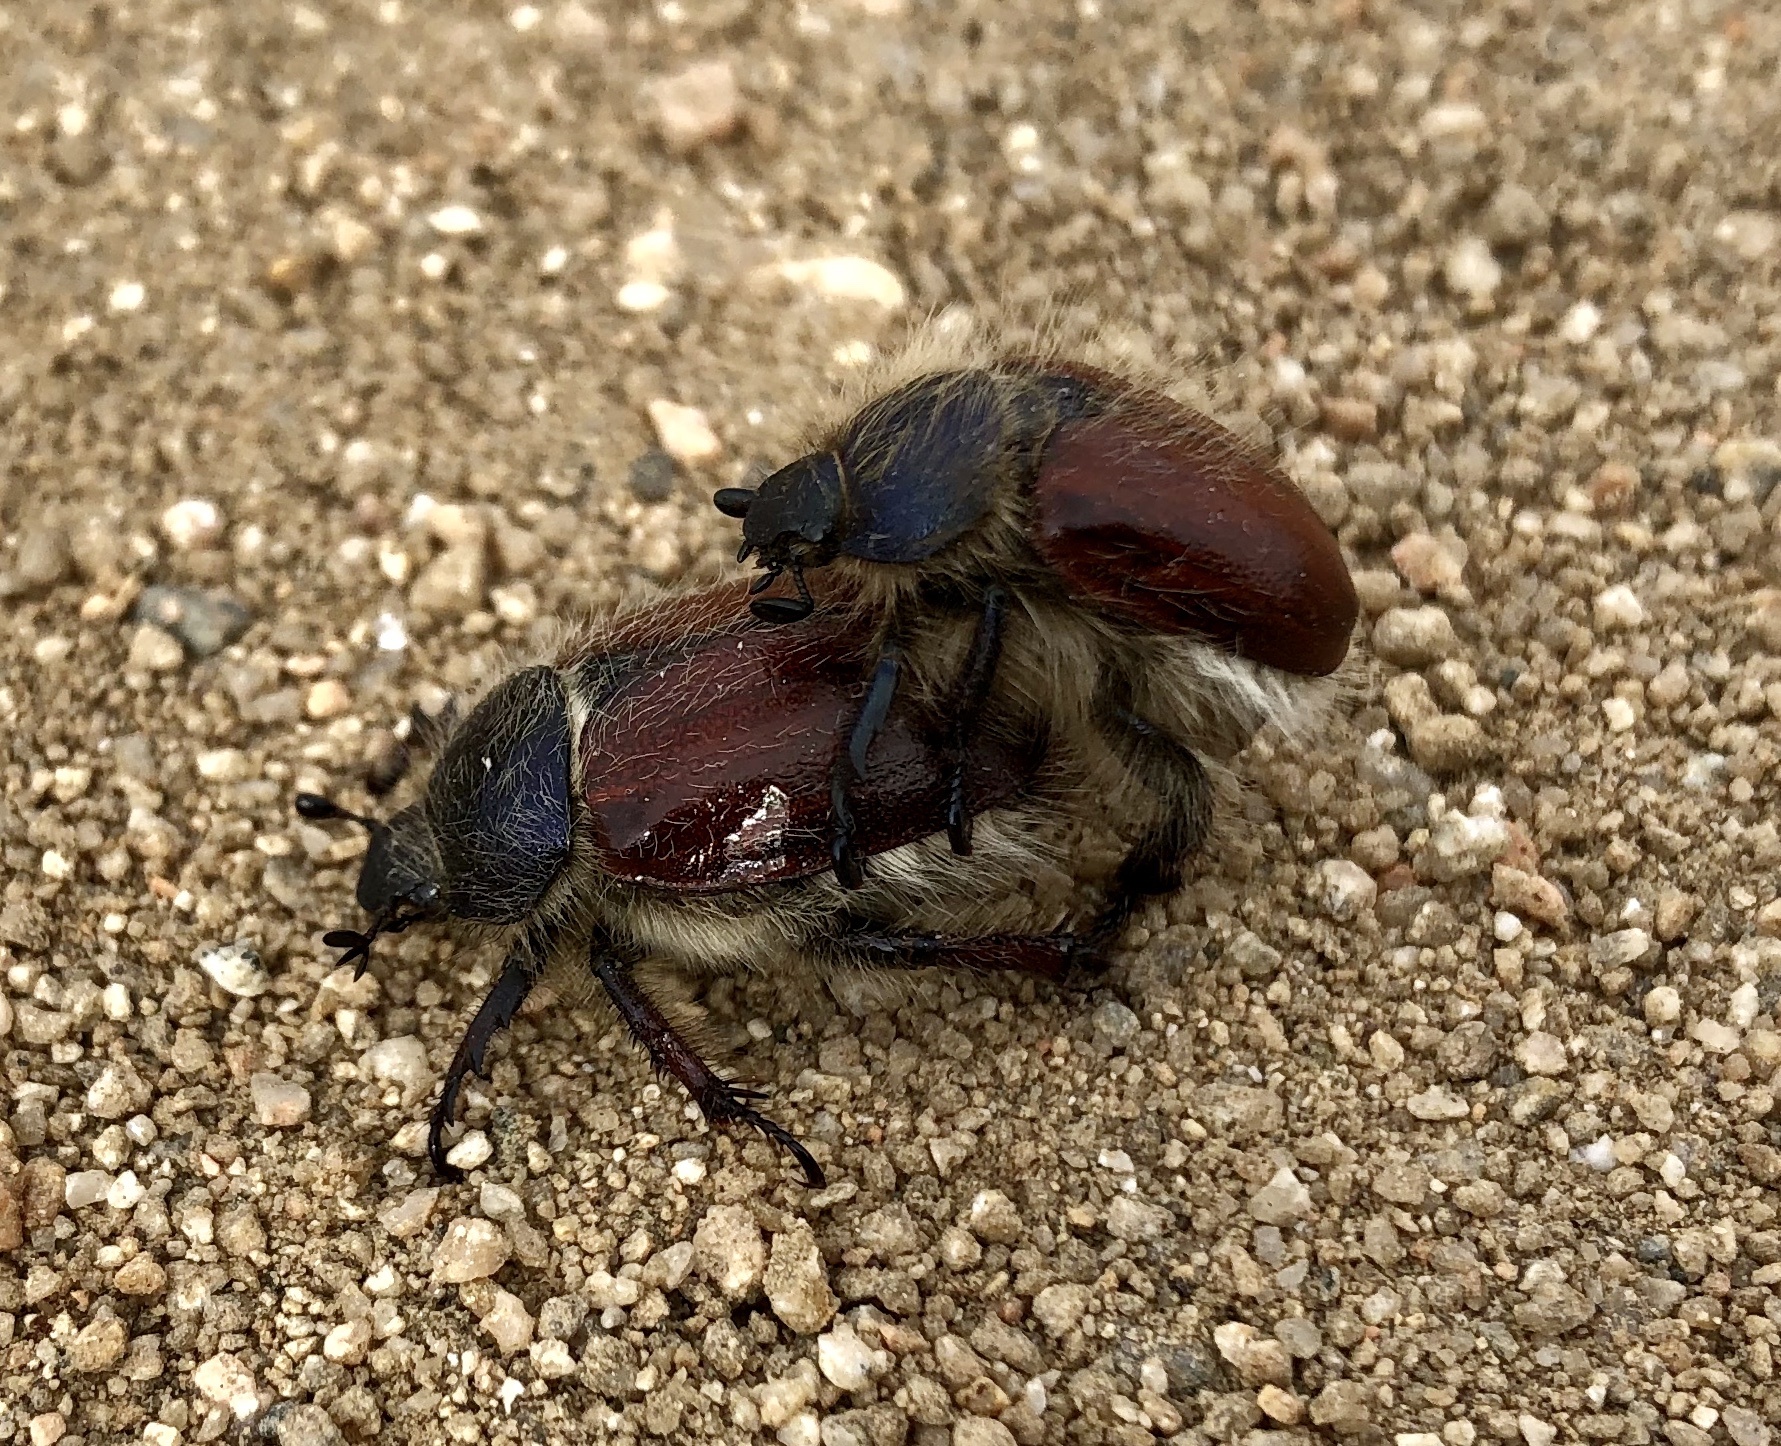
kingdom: Animalia
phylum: Arthropoda
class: Insecta
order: Coleoptera
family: Scarabaeidae
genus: Paracotalpa
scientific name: Paracotalpa
